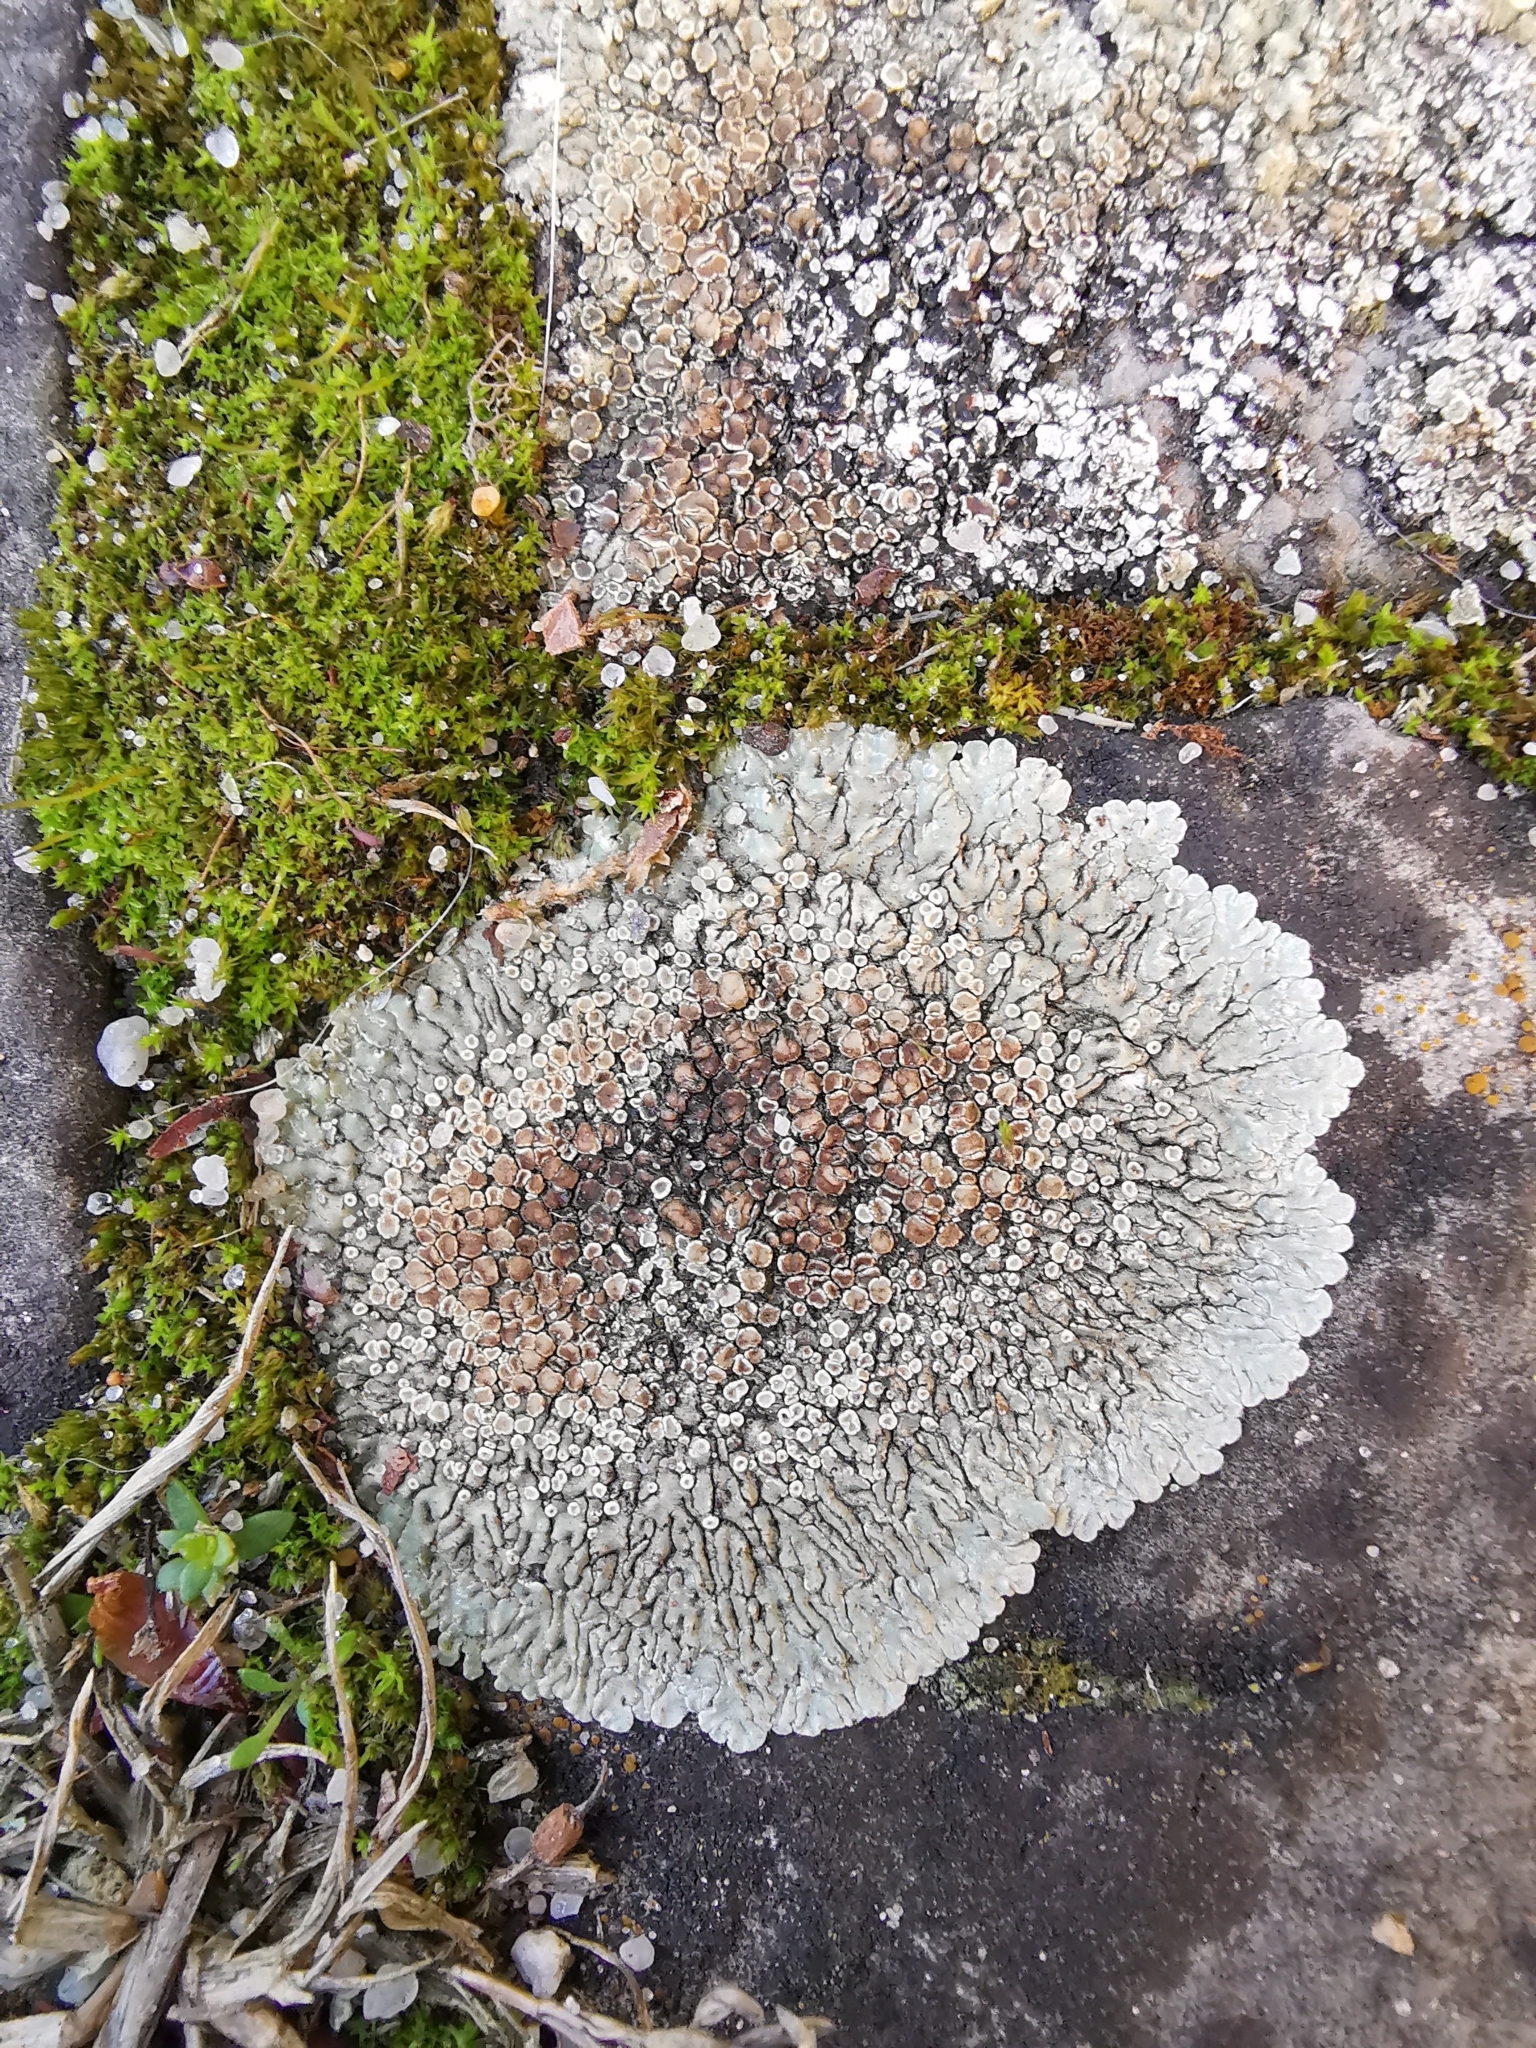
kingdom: Fungi
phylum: Ascomycota
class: Lecanoromycetes
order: Lecanorales
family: Lecanoraceae
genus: Protoparmeliopsis
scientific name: Protoparmeliopsis muralis
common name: Stonewall rim lichen
